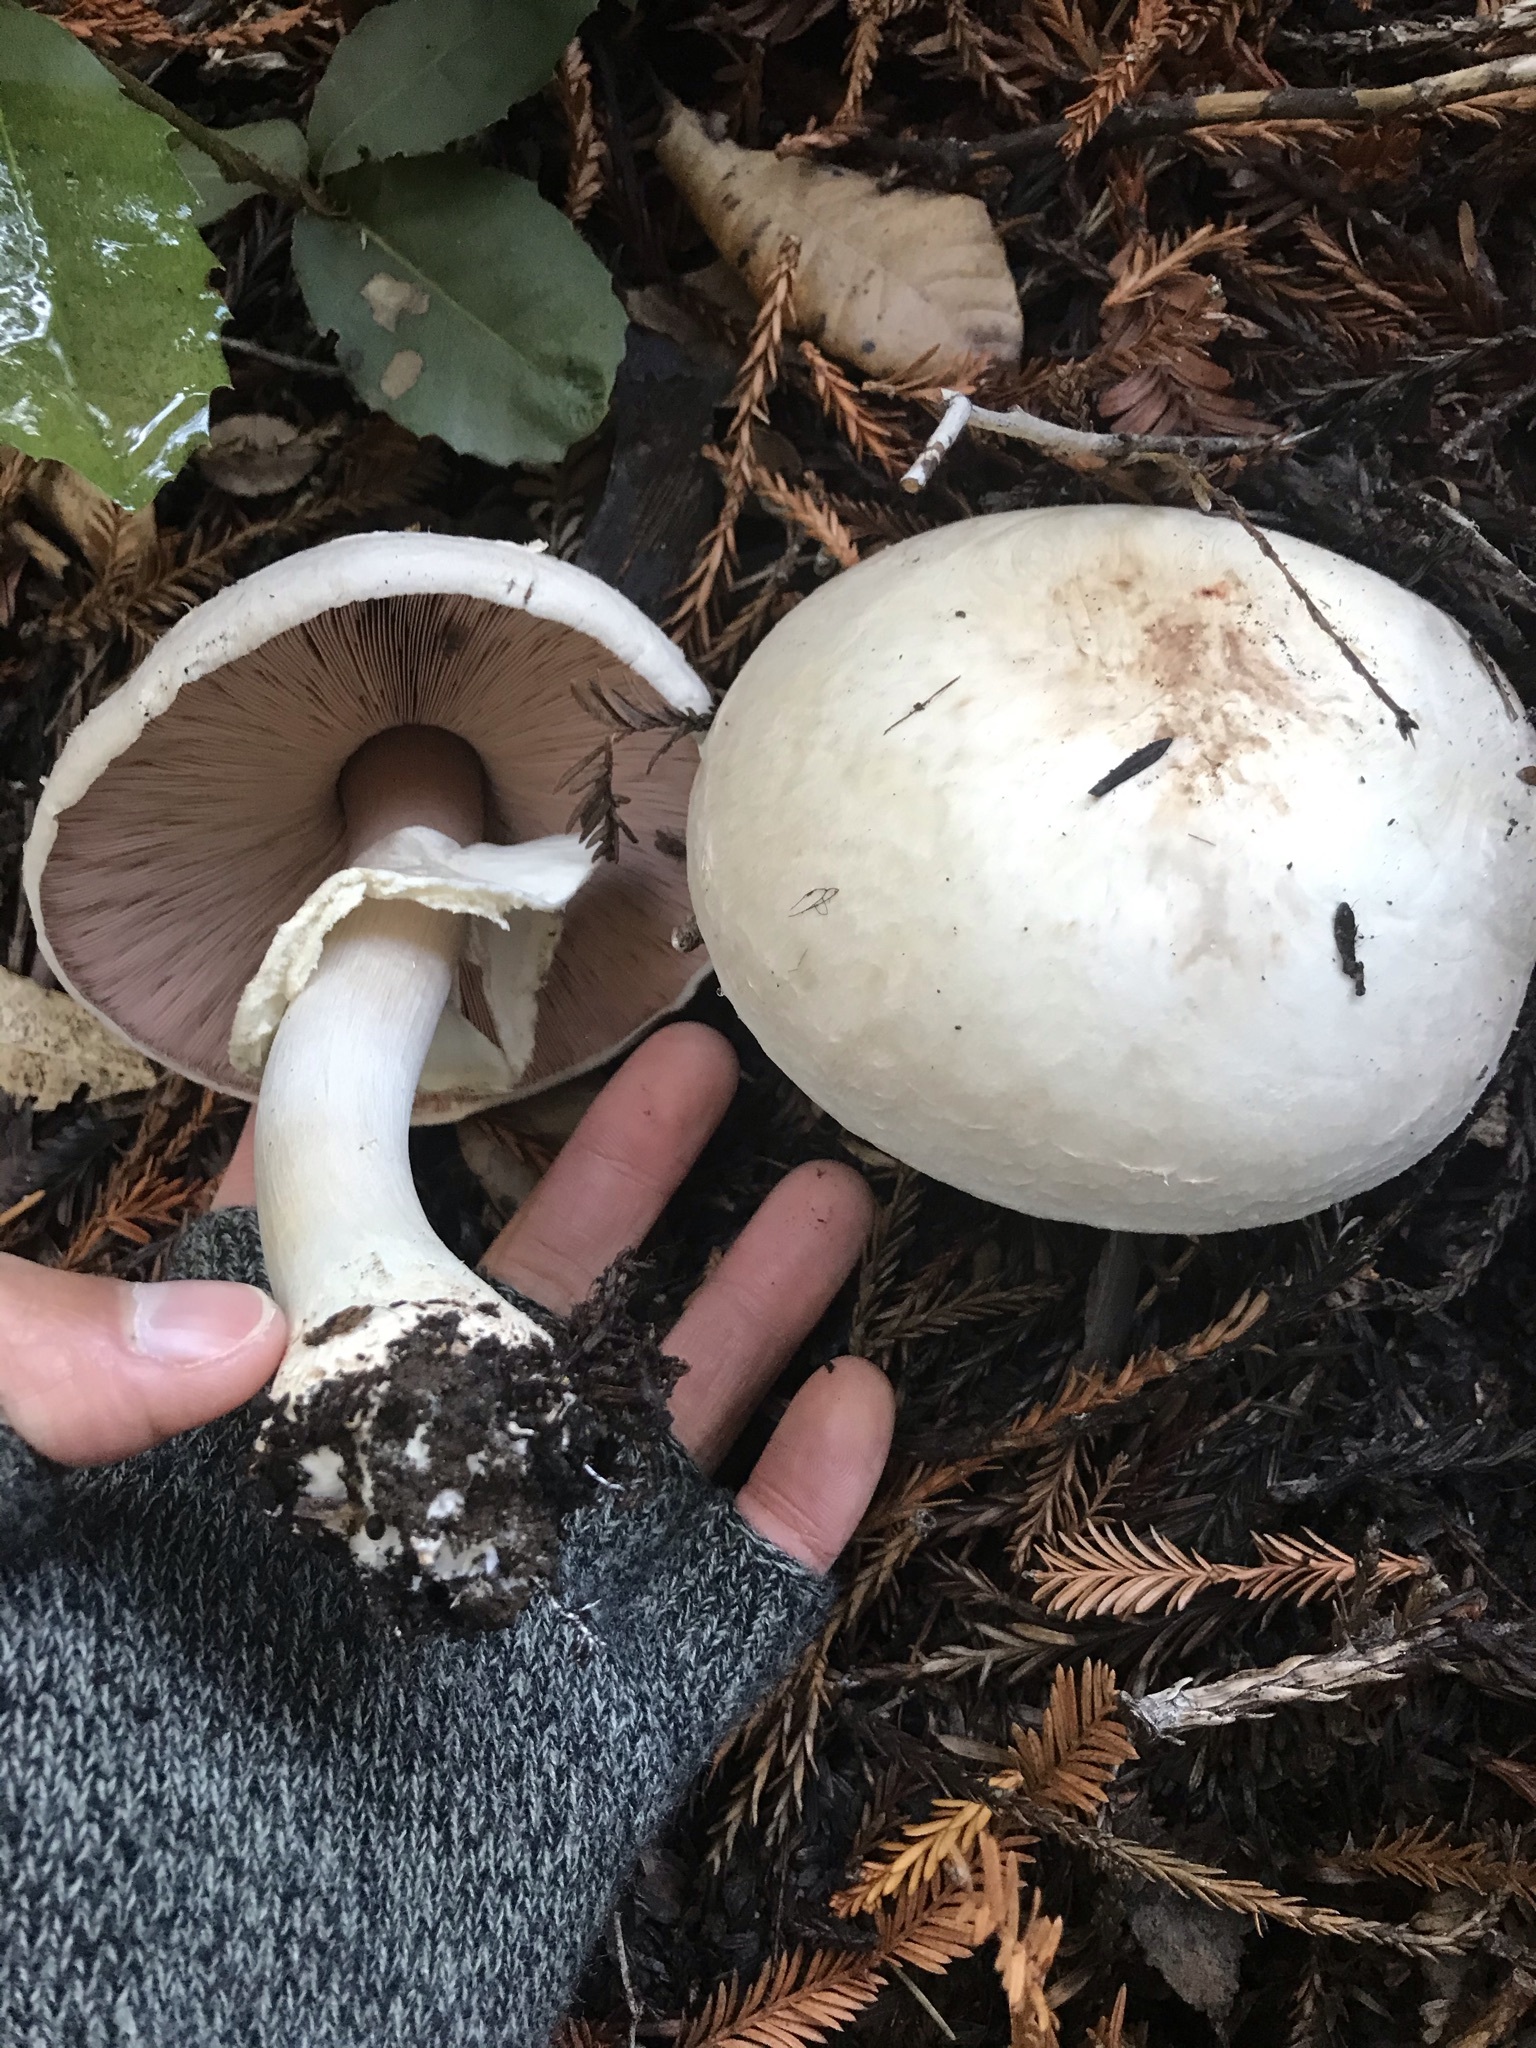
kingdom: Fungi
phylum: Basidiomycota
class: Agaricomycetes
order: Agaricales
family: Agaricaceae
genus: Agaricus
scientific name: Agaricus hondensis
